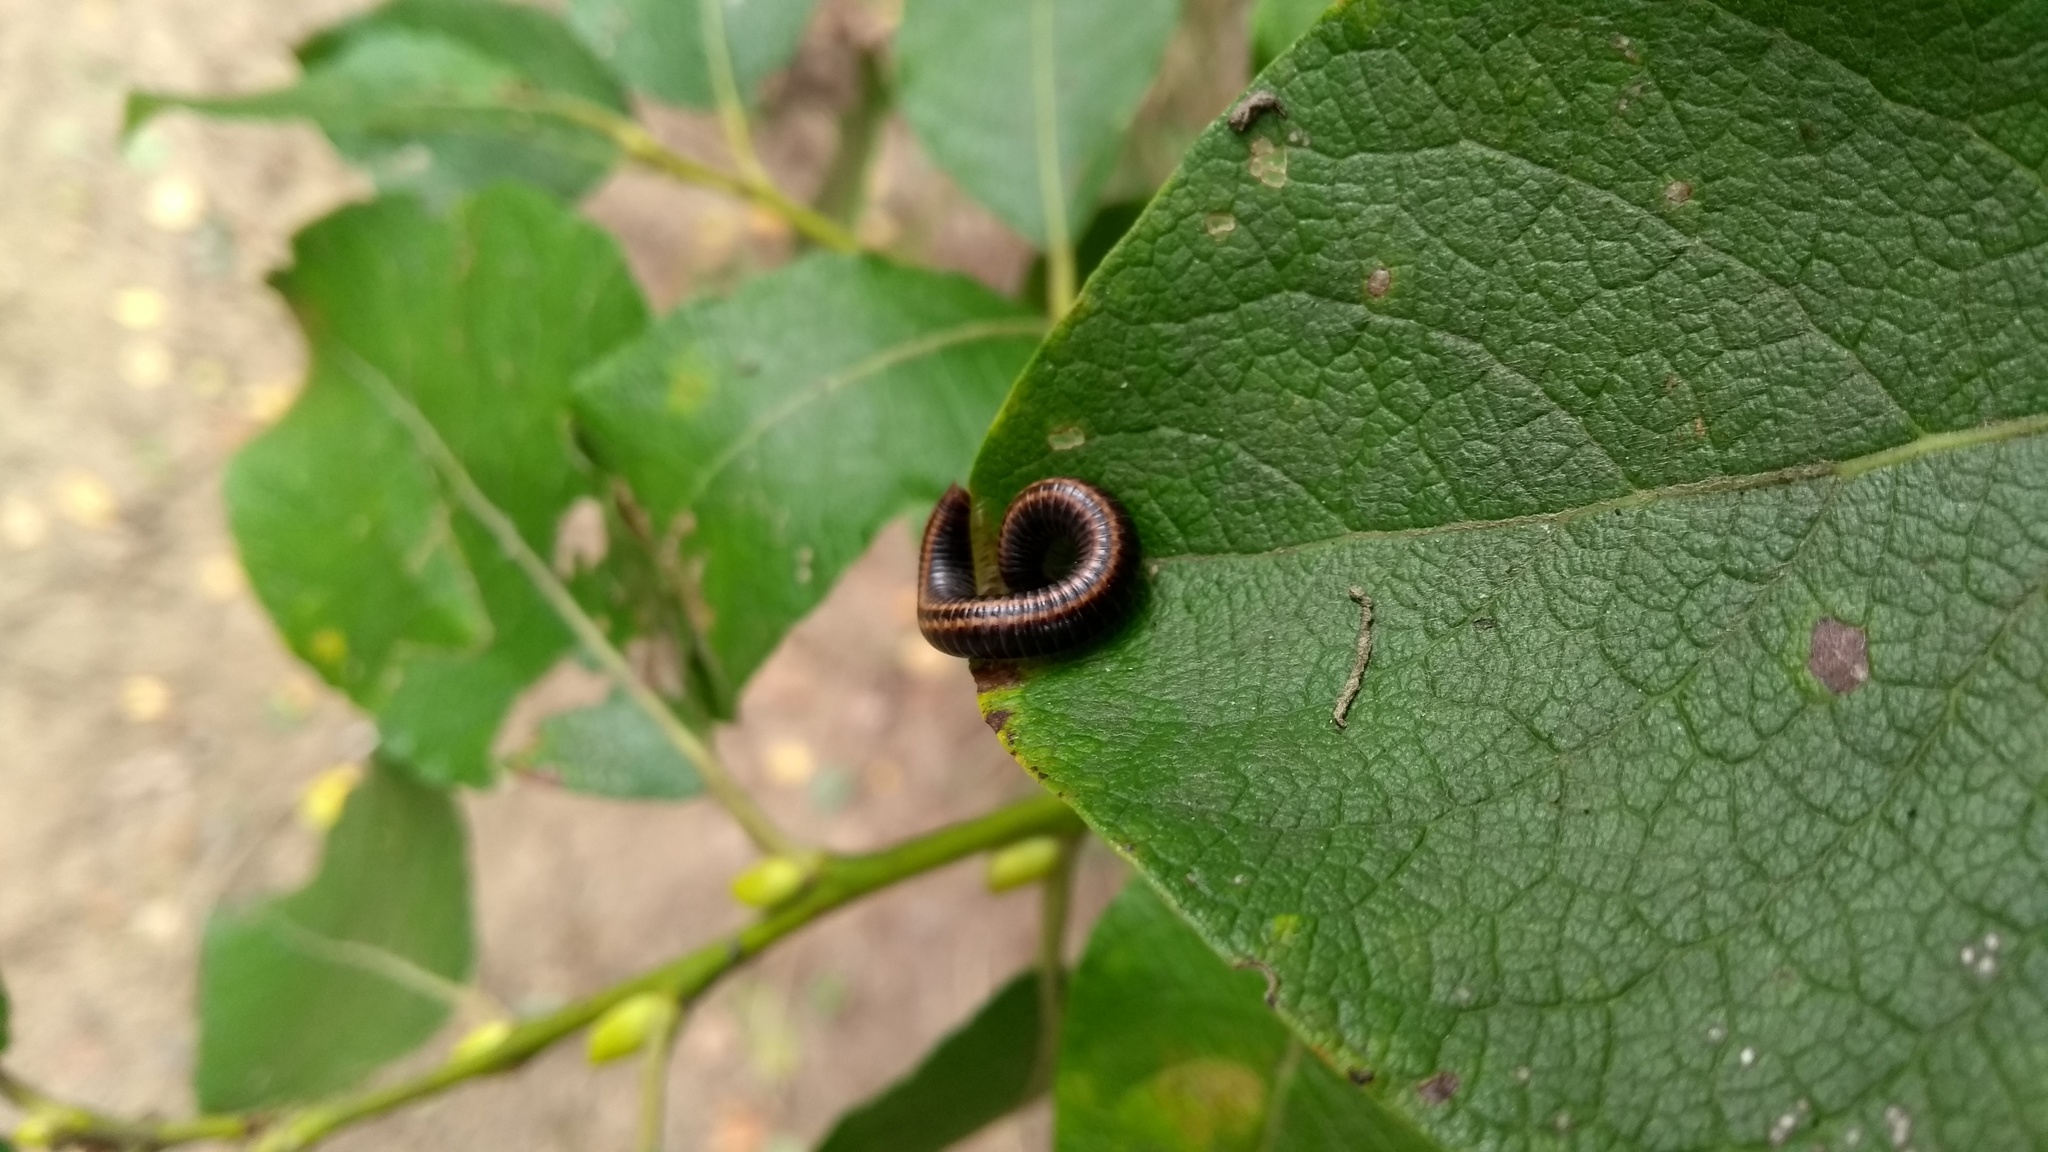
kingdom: Animalia
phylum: Arthropoda
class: Diplopoda
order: Julida
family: Julidae
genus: Ommatoiulus
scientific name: Ommatoiulus sabulosus
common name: Striped millipede
